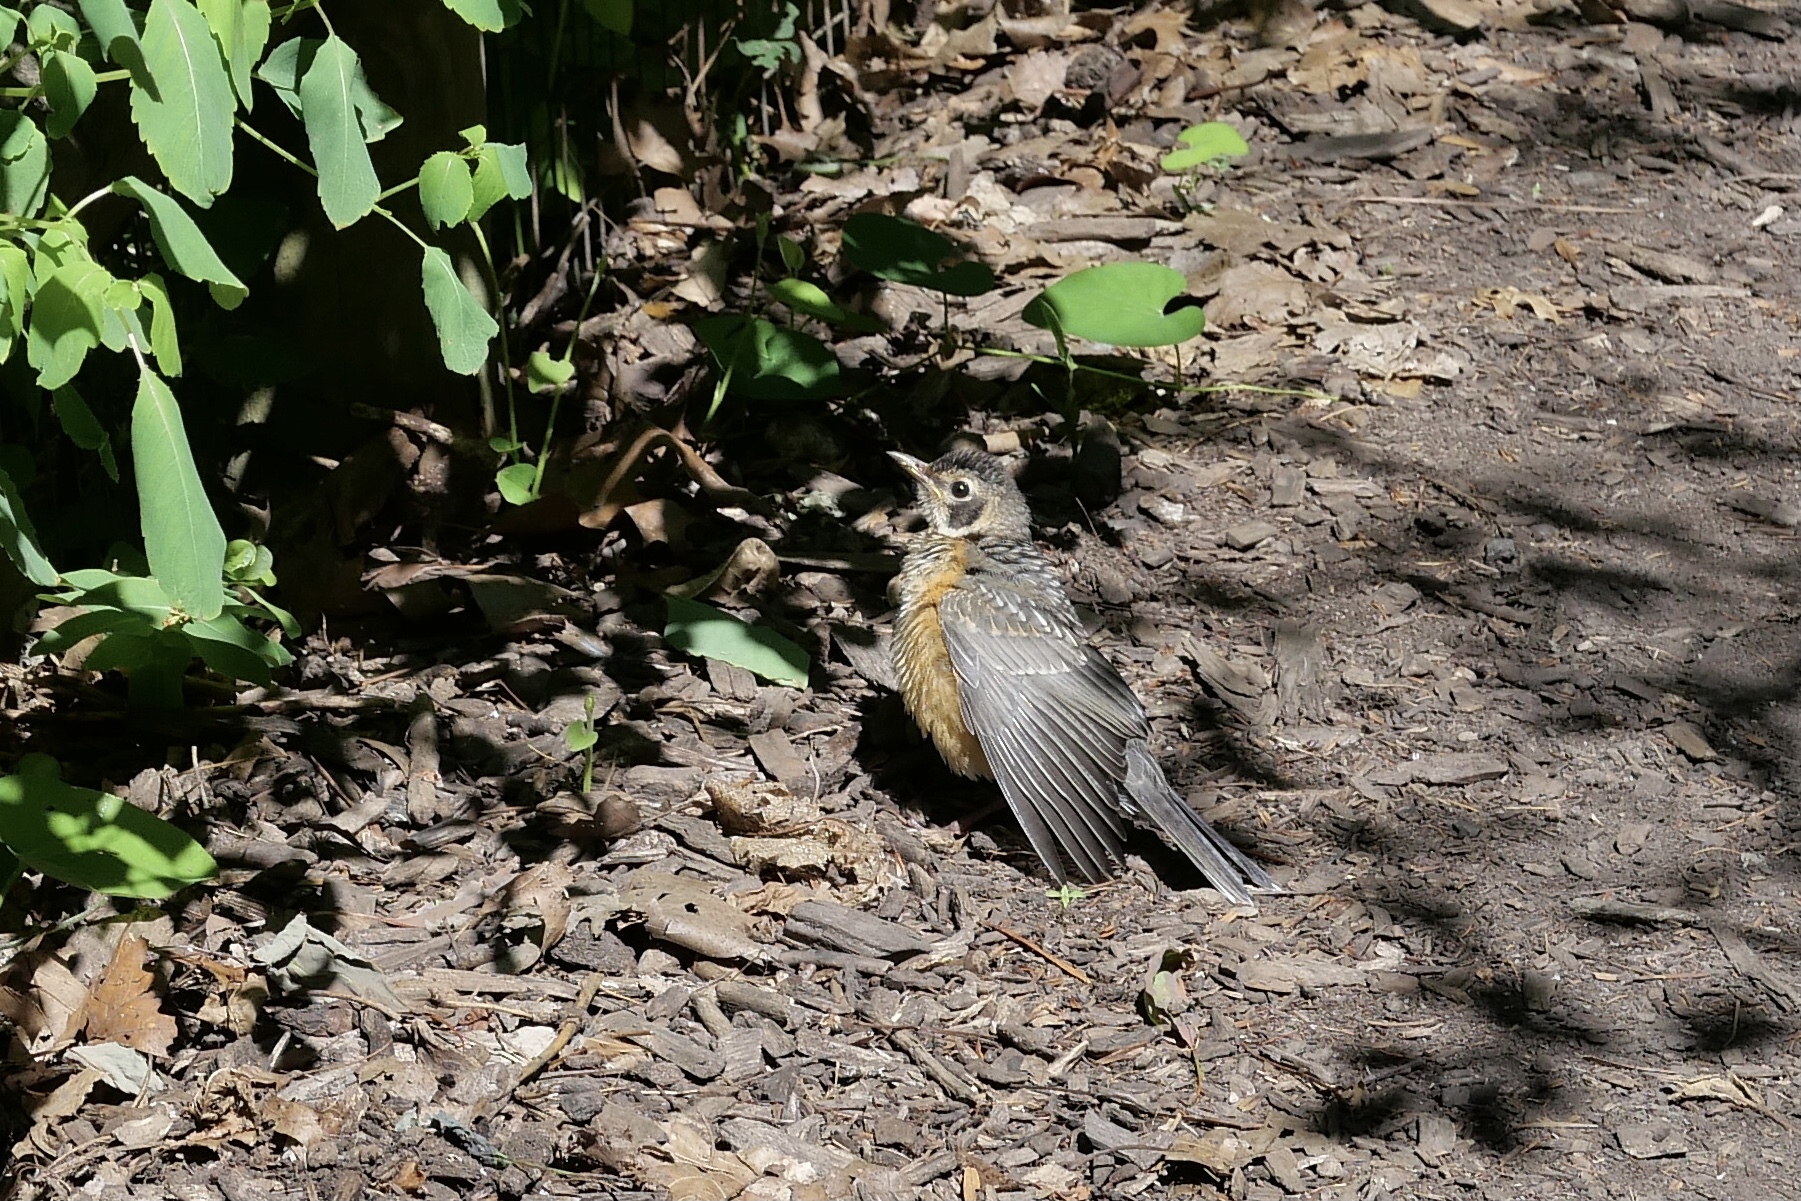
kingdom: Animalia
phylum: Chordata
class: Aves
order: Passeriformes
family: Turdidae
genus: Turdus
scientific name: Turdus migratorius
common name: American robin
